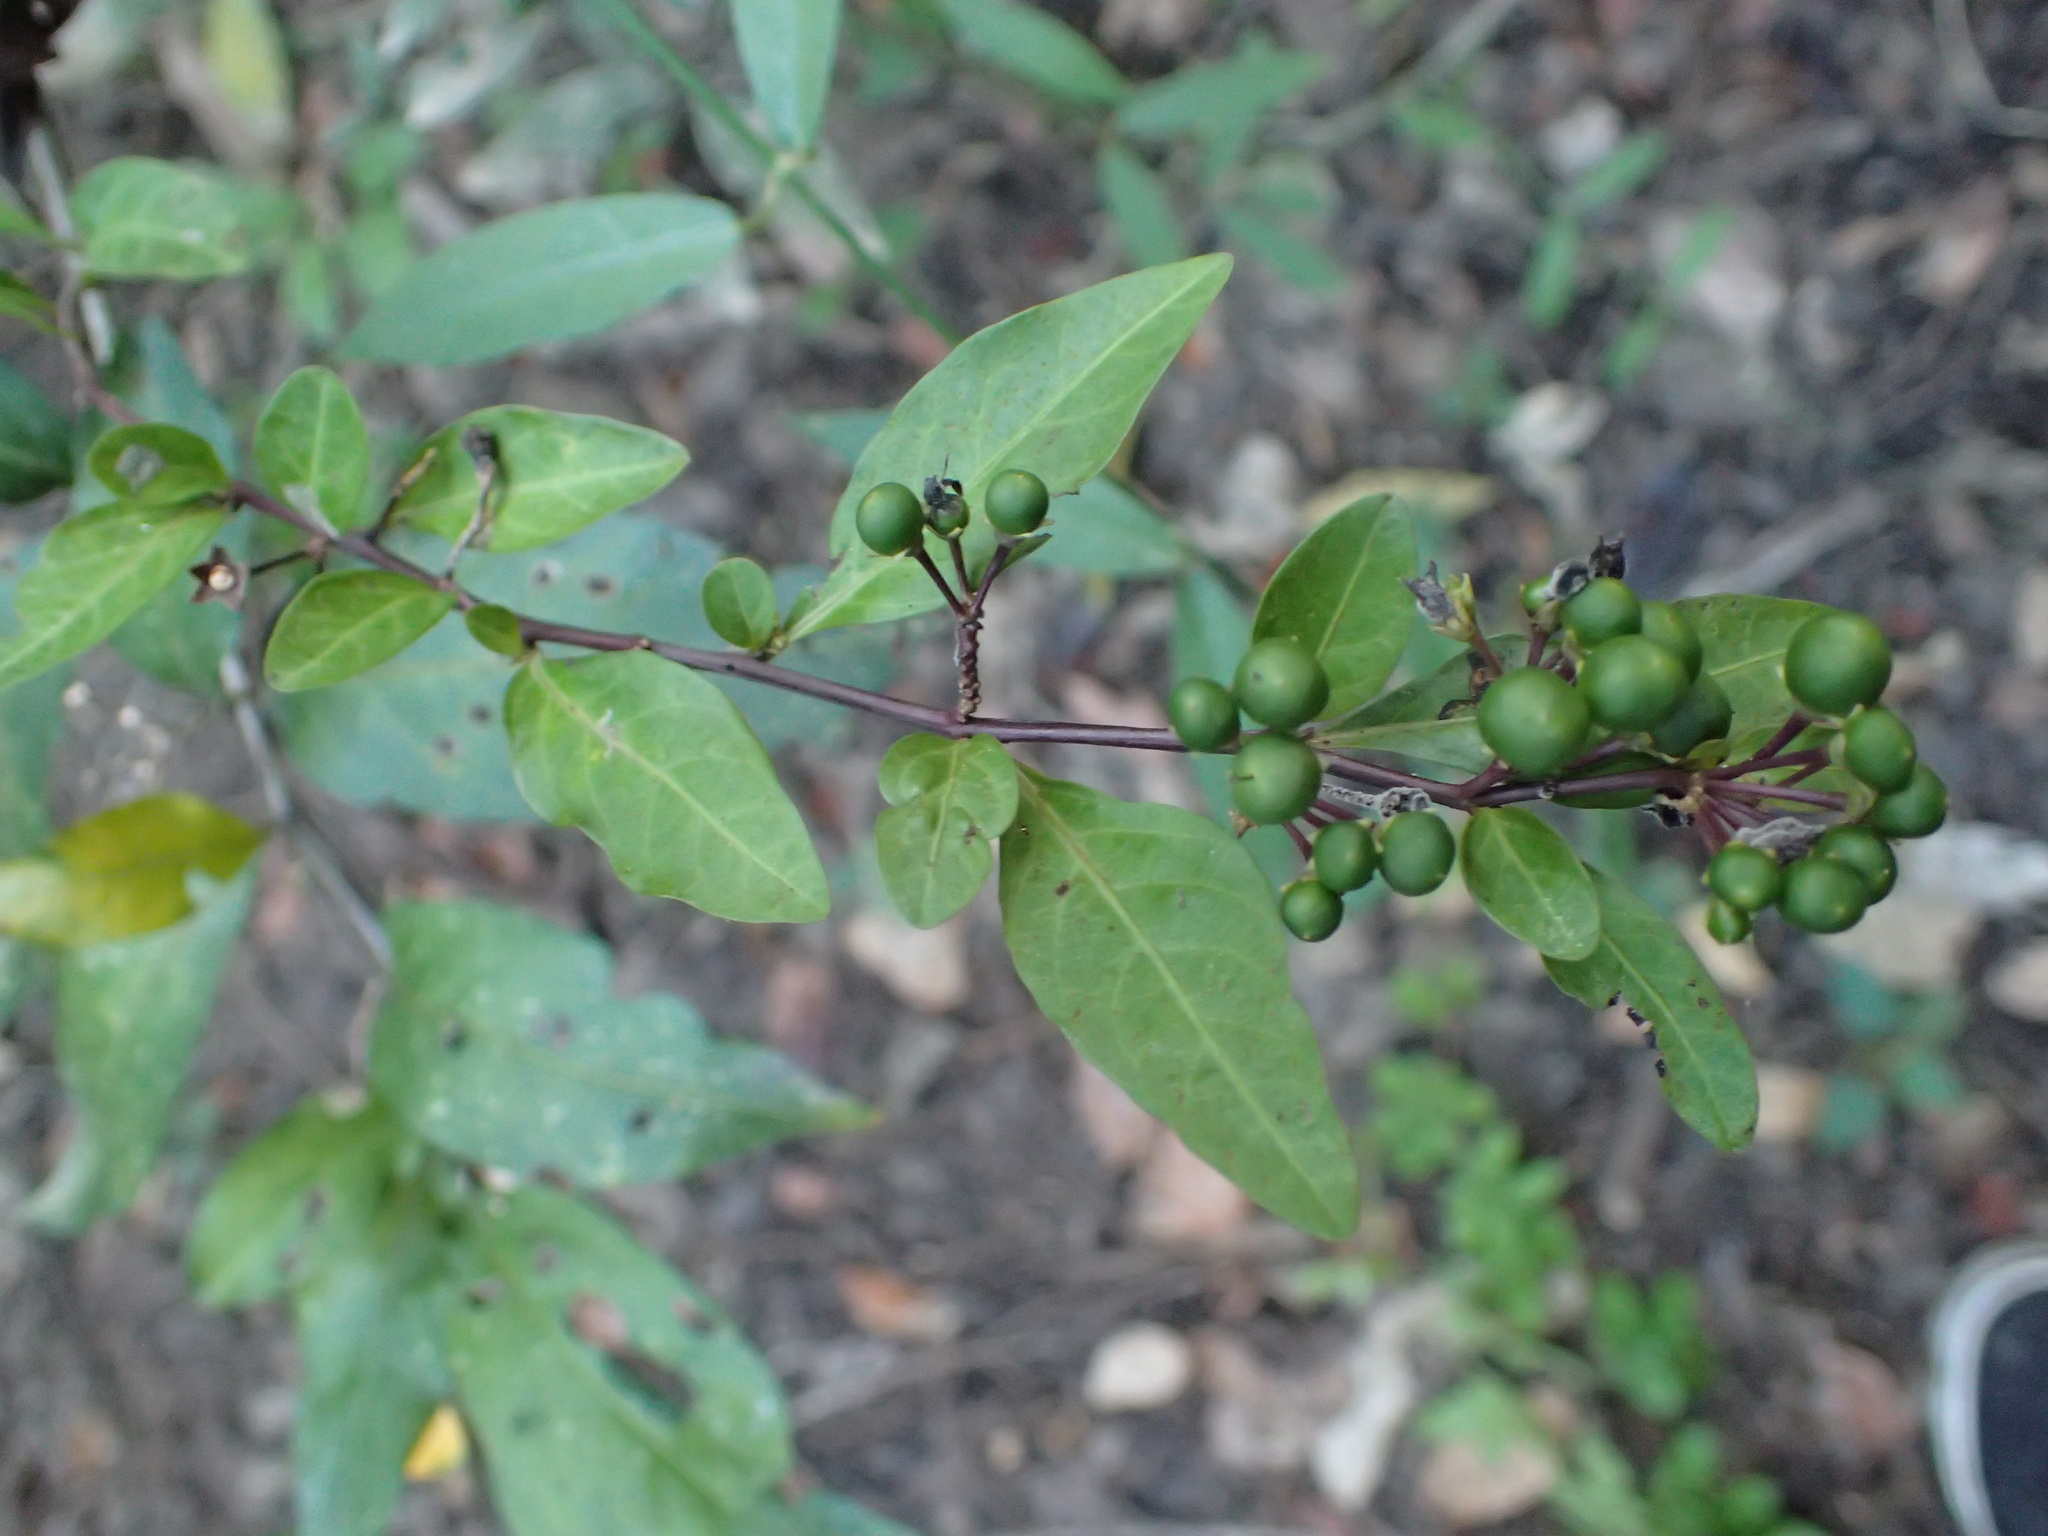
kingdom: Plantae
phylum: Tracheophyta
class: Magnoliopsida
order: Solanales
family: Solanaceae
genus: Solanum
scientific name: Solanum diphyllum
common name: Twoleaf nightshade
